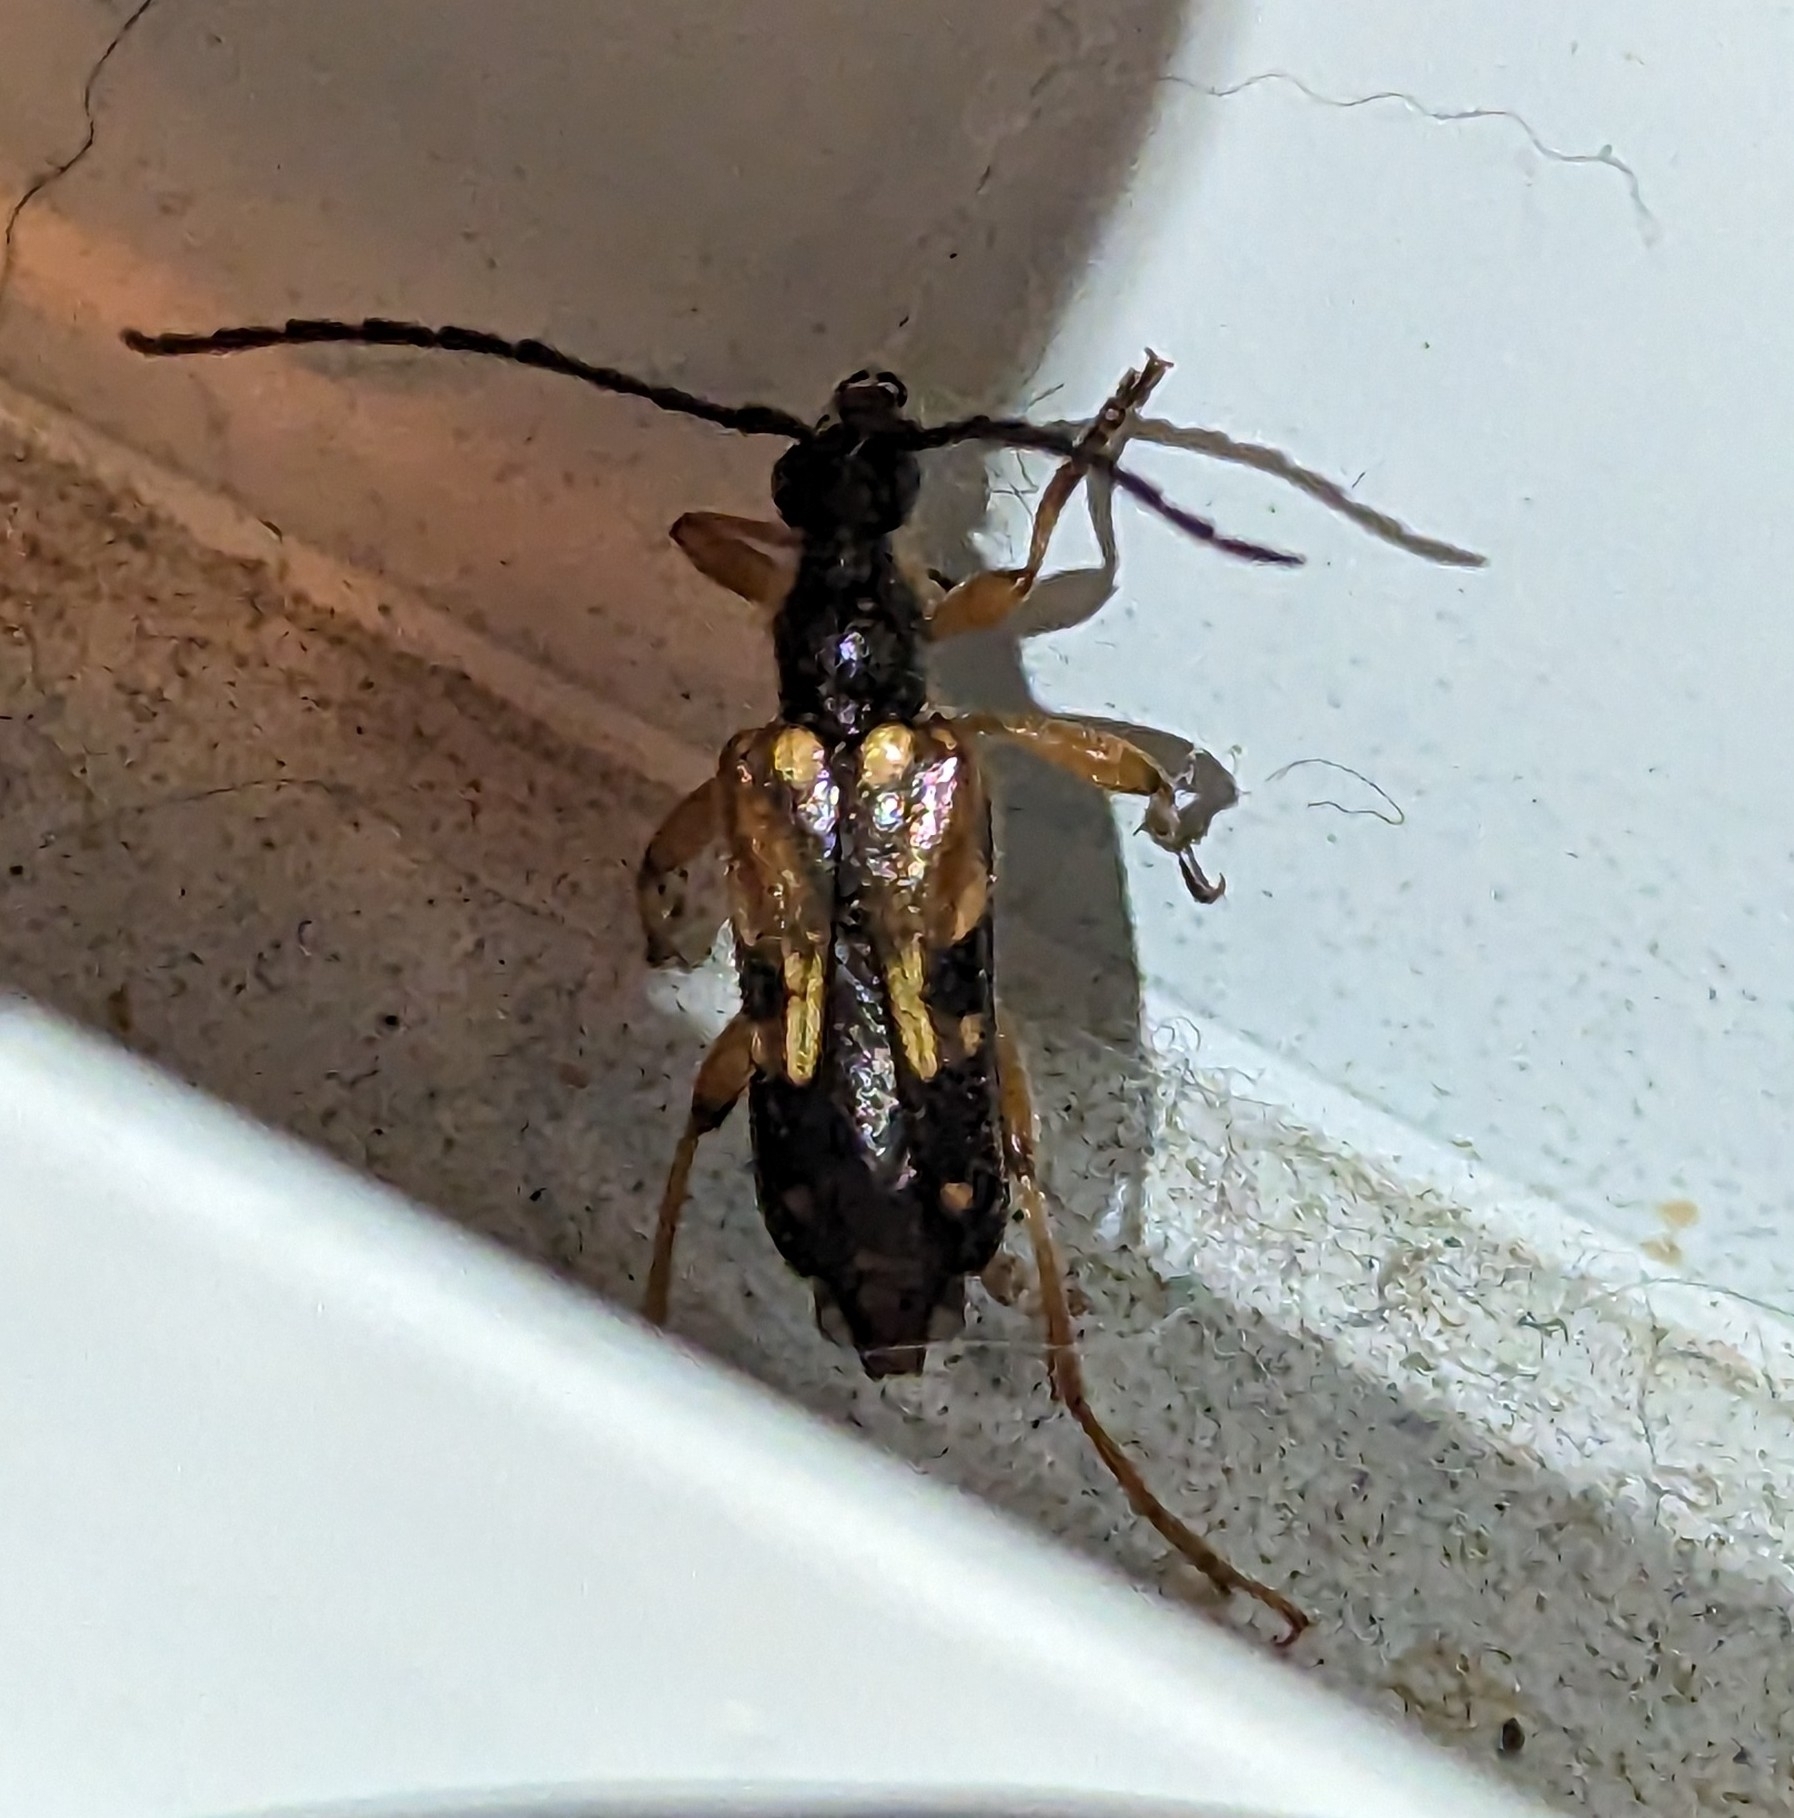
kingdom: Animalia
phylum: Arthropoda
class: Insecta
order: Coleoptera
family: Cerambycidae
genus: Xestoleptura
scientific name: Xestoleptura crassipes
